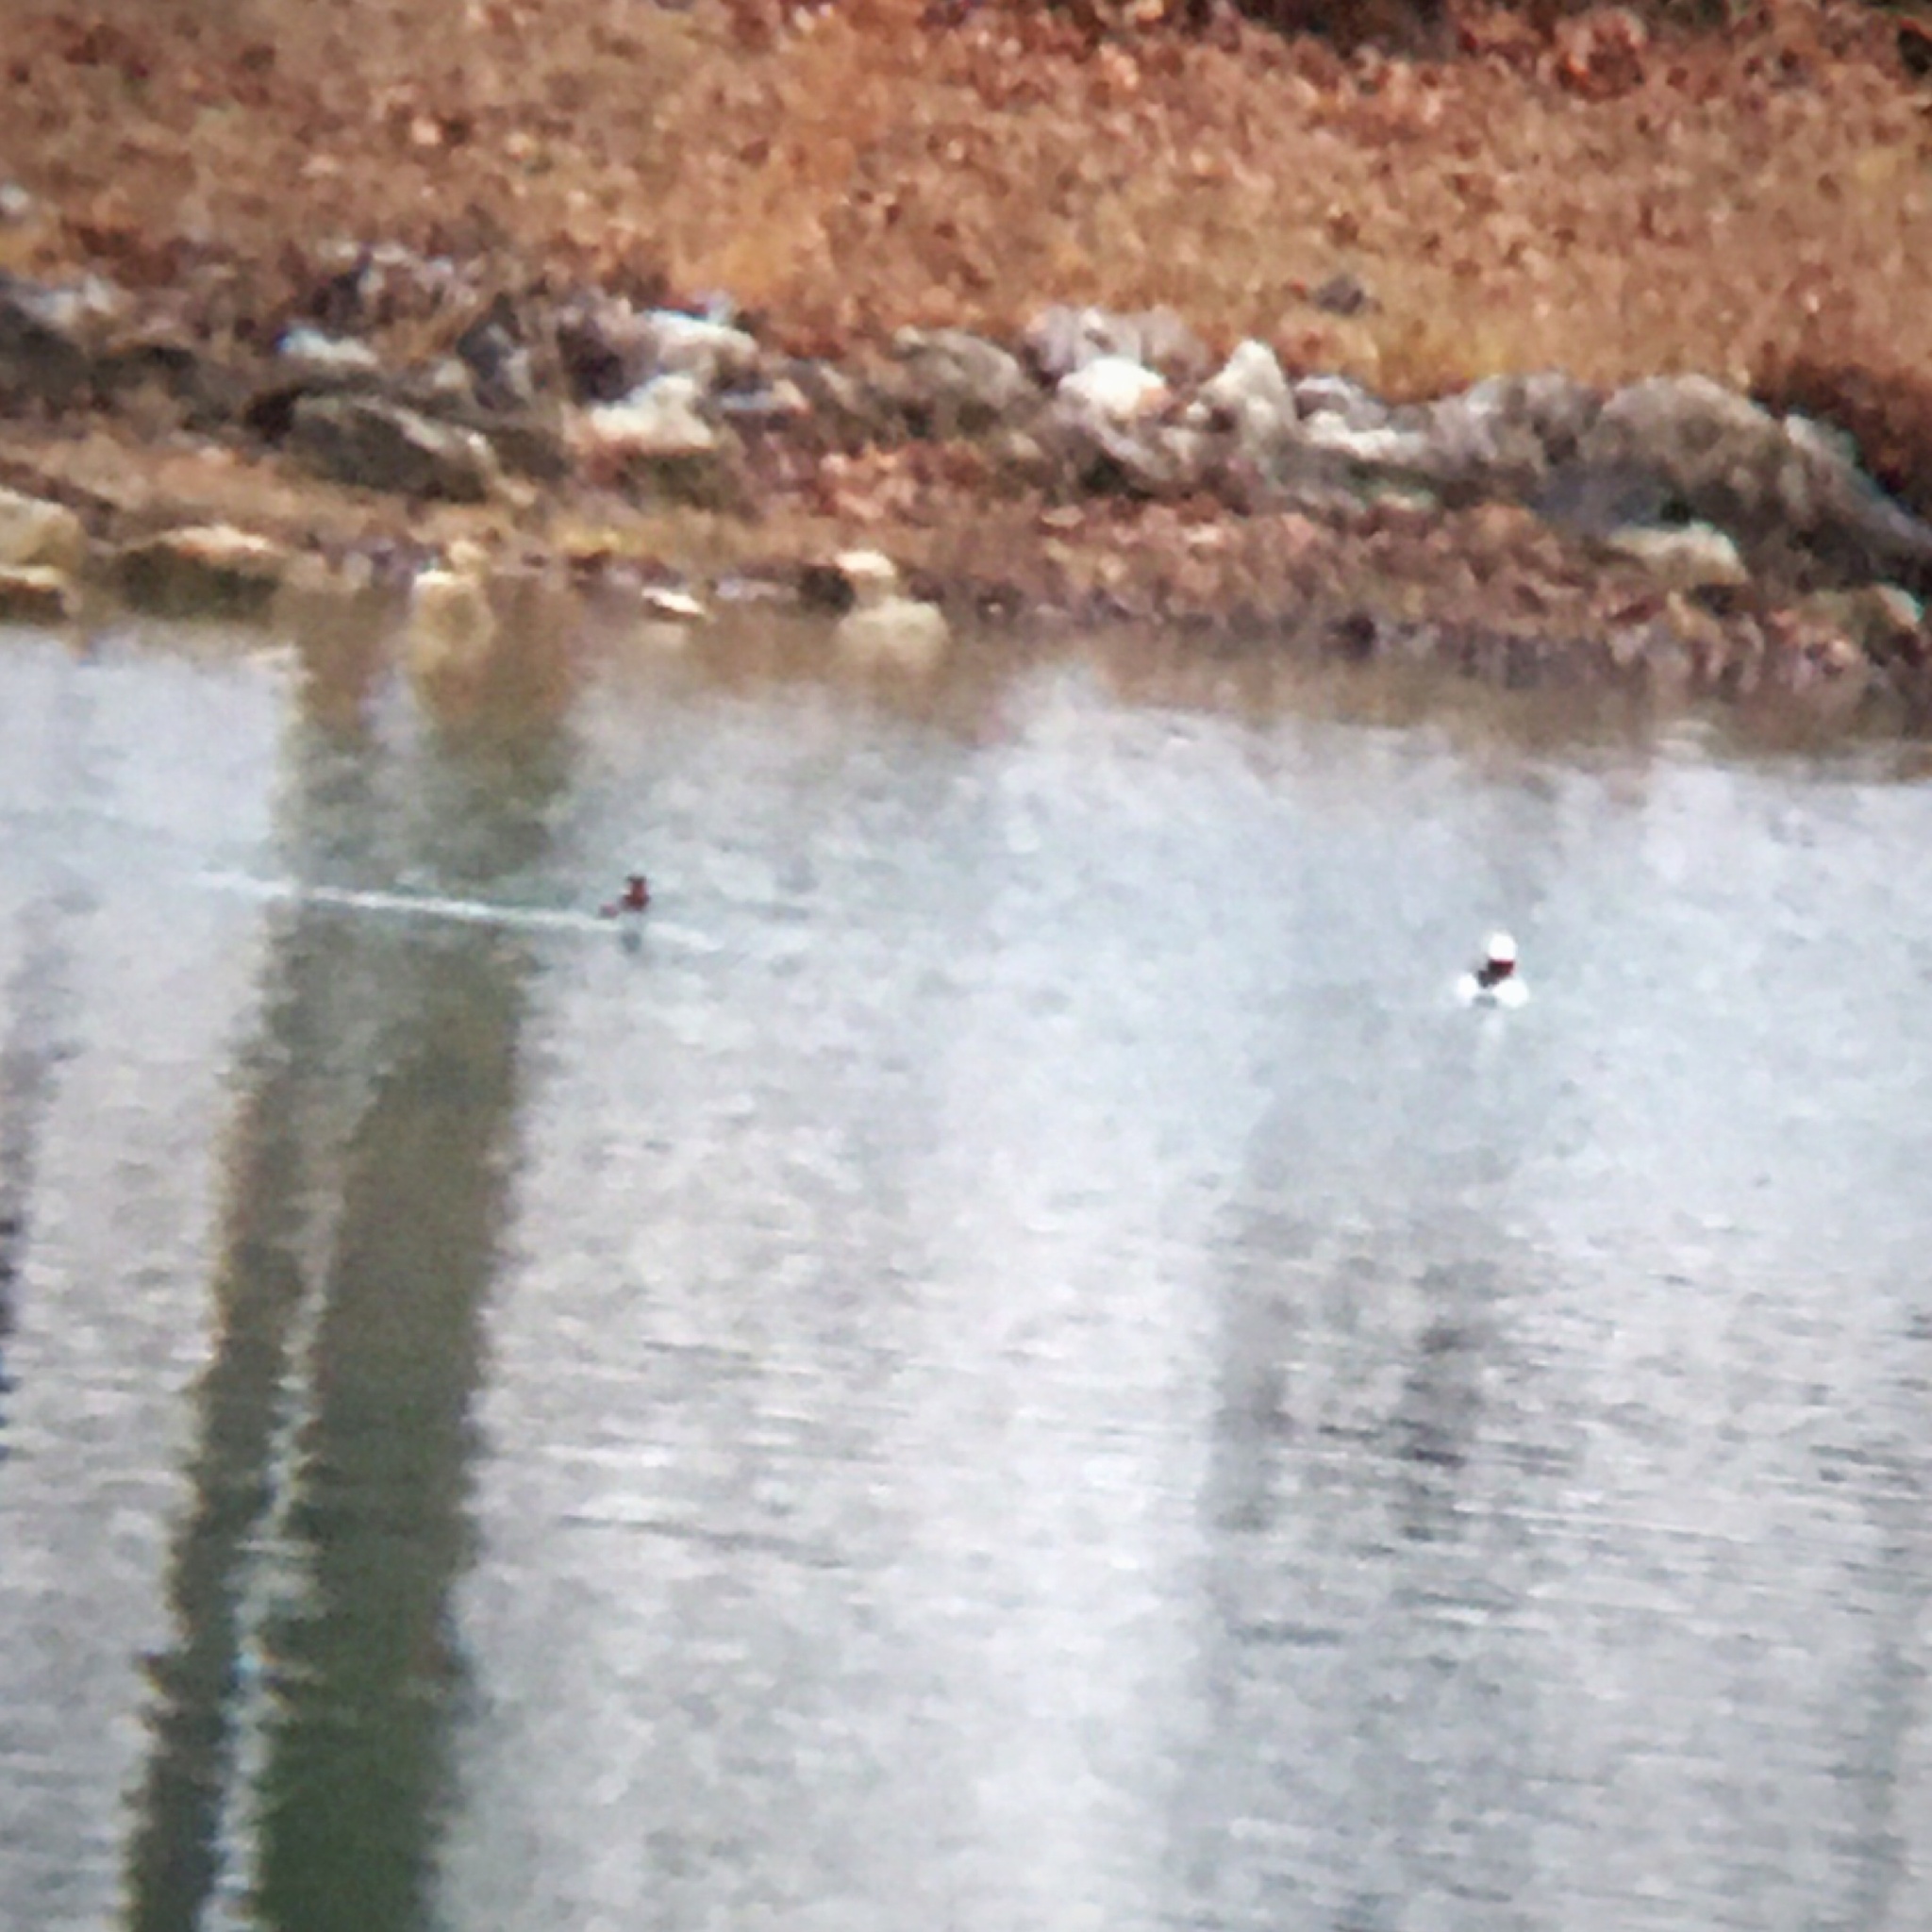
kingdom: Animalia
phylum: Chordata
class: Aves
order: Anseriformes
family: Anatidae
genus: Bucephala
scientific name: Bucephala albeola
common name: Bufflehead
